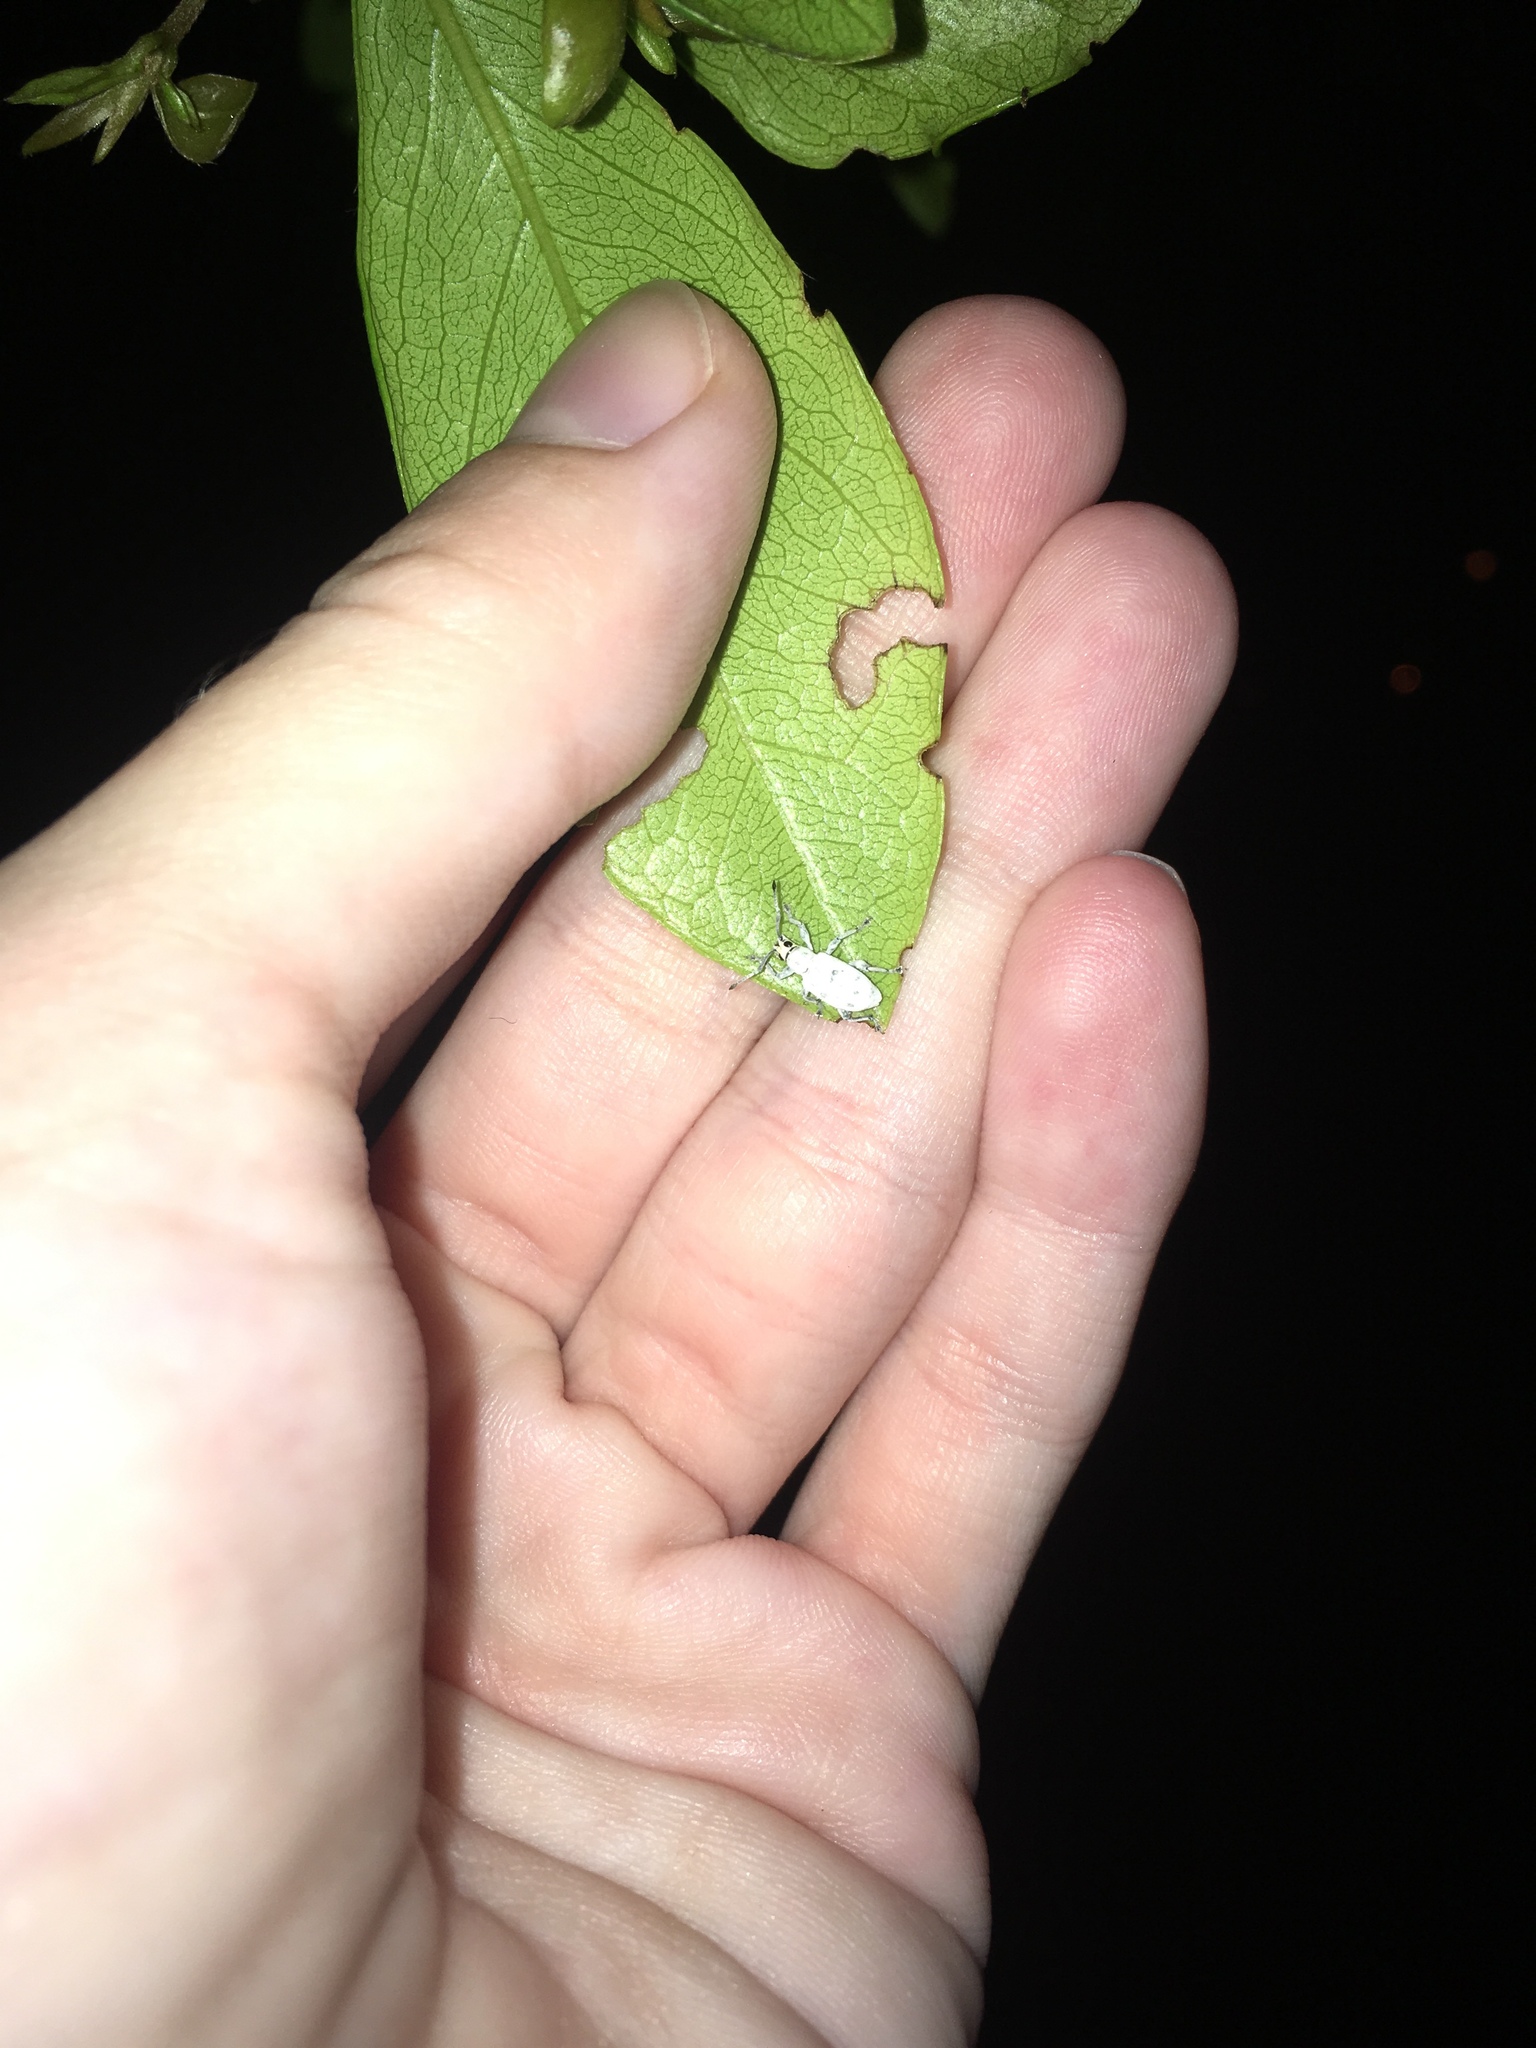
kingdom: Animalia
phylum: Arthropoda
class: Insecta
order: Coleoptera
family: Curculionidae
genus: Myllocerus
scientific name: Myllocerus undecimpustulatus
